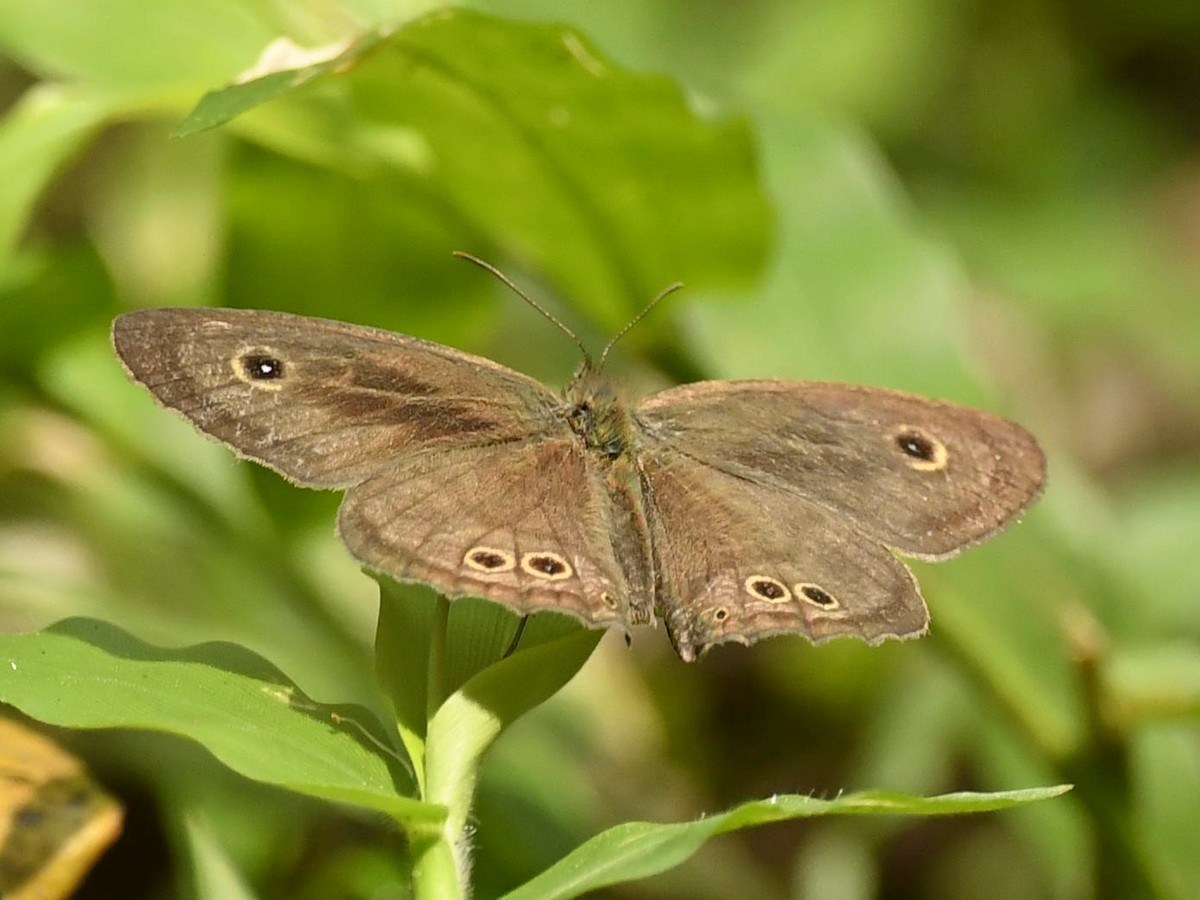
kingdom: Animalia
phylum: Arthropoda
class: Insecta
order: Lepidoptera
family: Nymphalidae
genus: Ypthima
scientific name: Ypthima baldus
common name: Common five-ring
